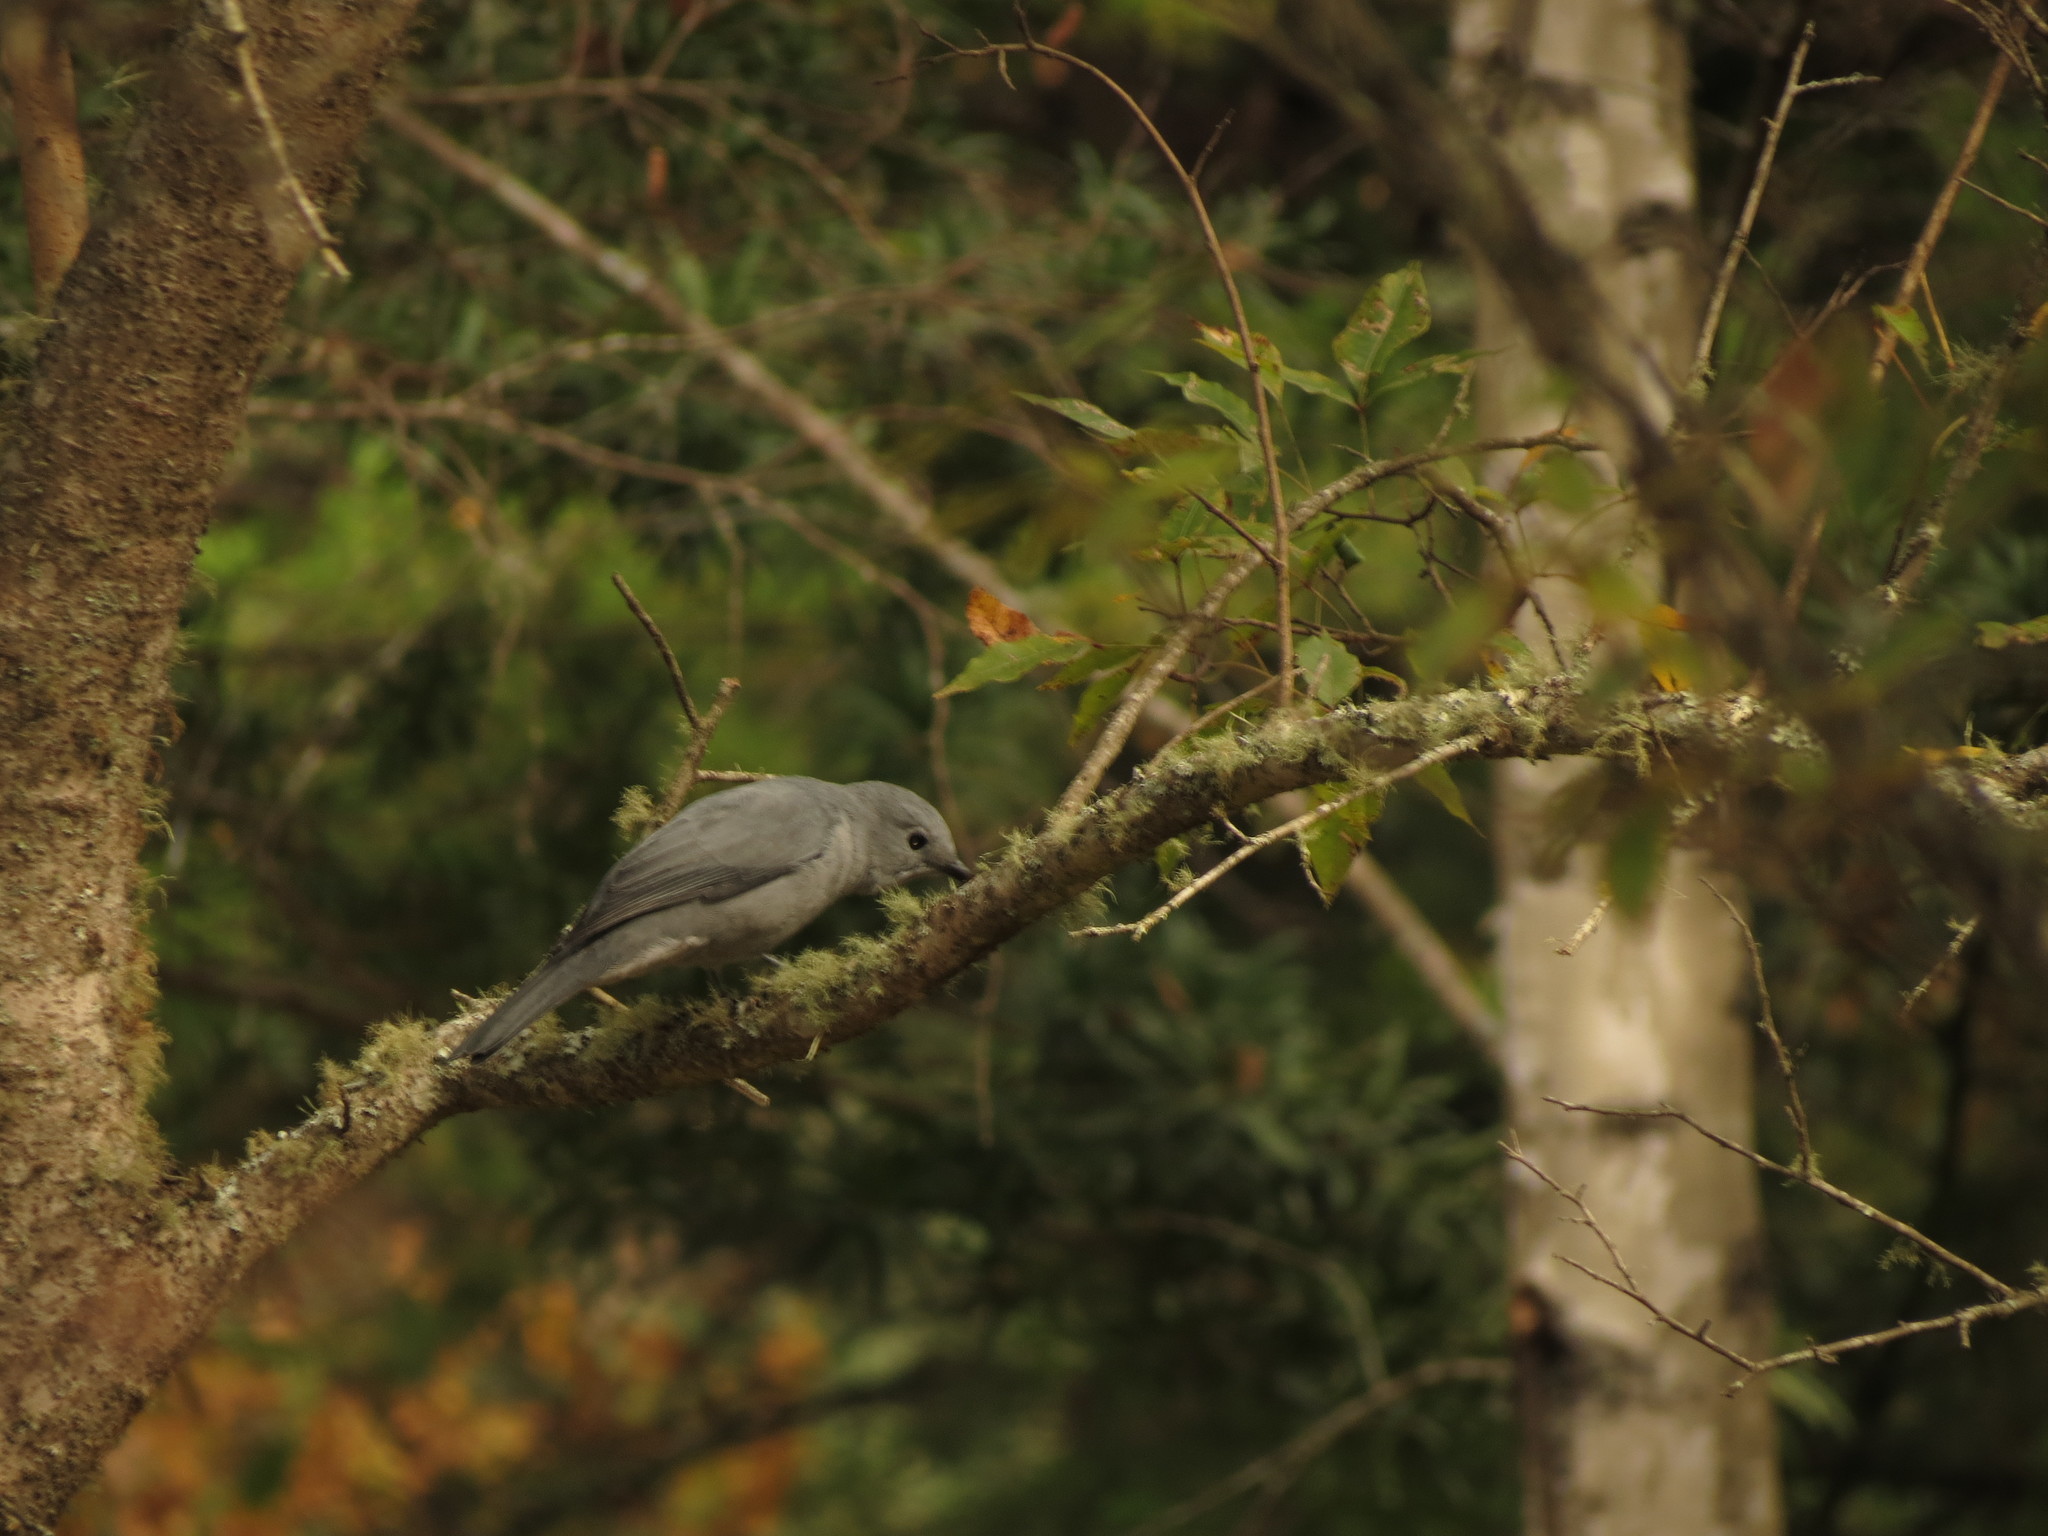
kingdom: Animalia
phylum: Chordata
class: Aves
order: Passeriformes
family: Campephagidae
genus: Coracina
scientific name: Coracina caesia
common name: Grey cuckooshrike
